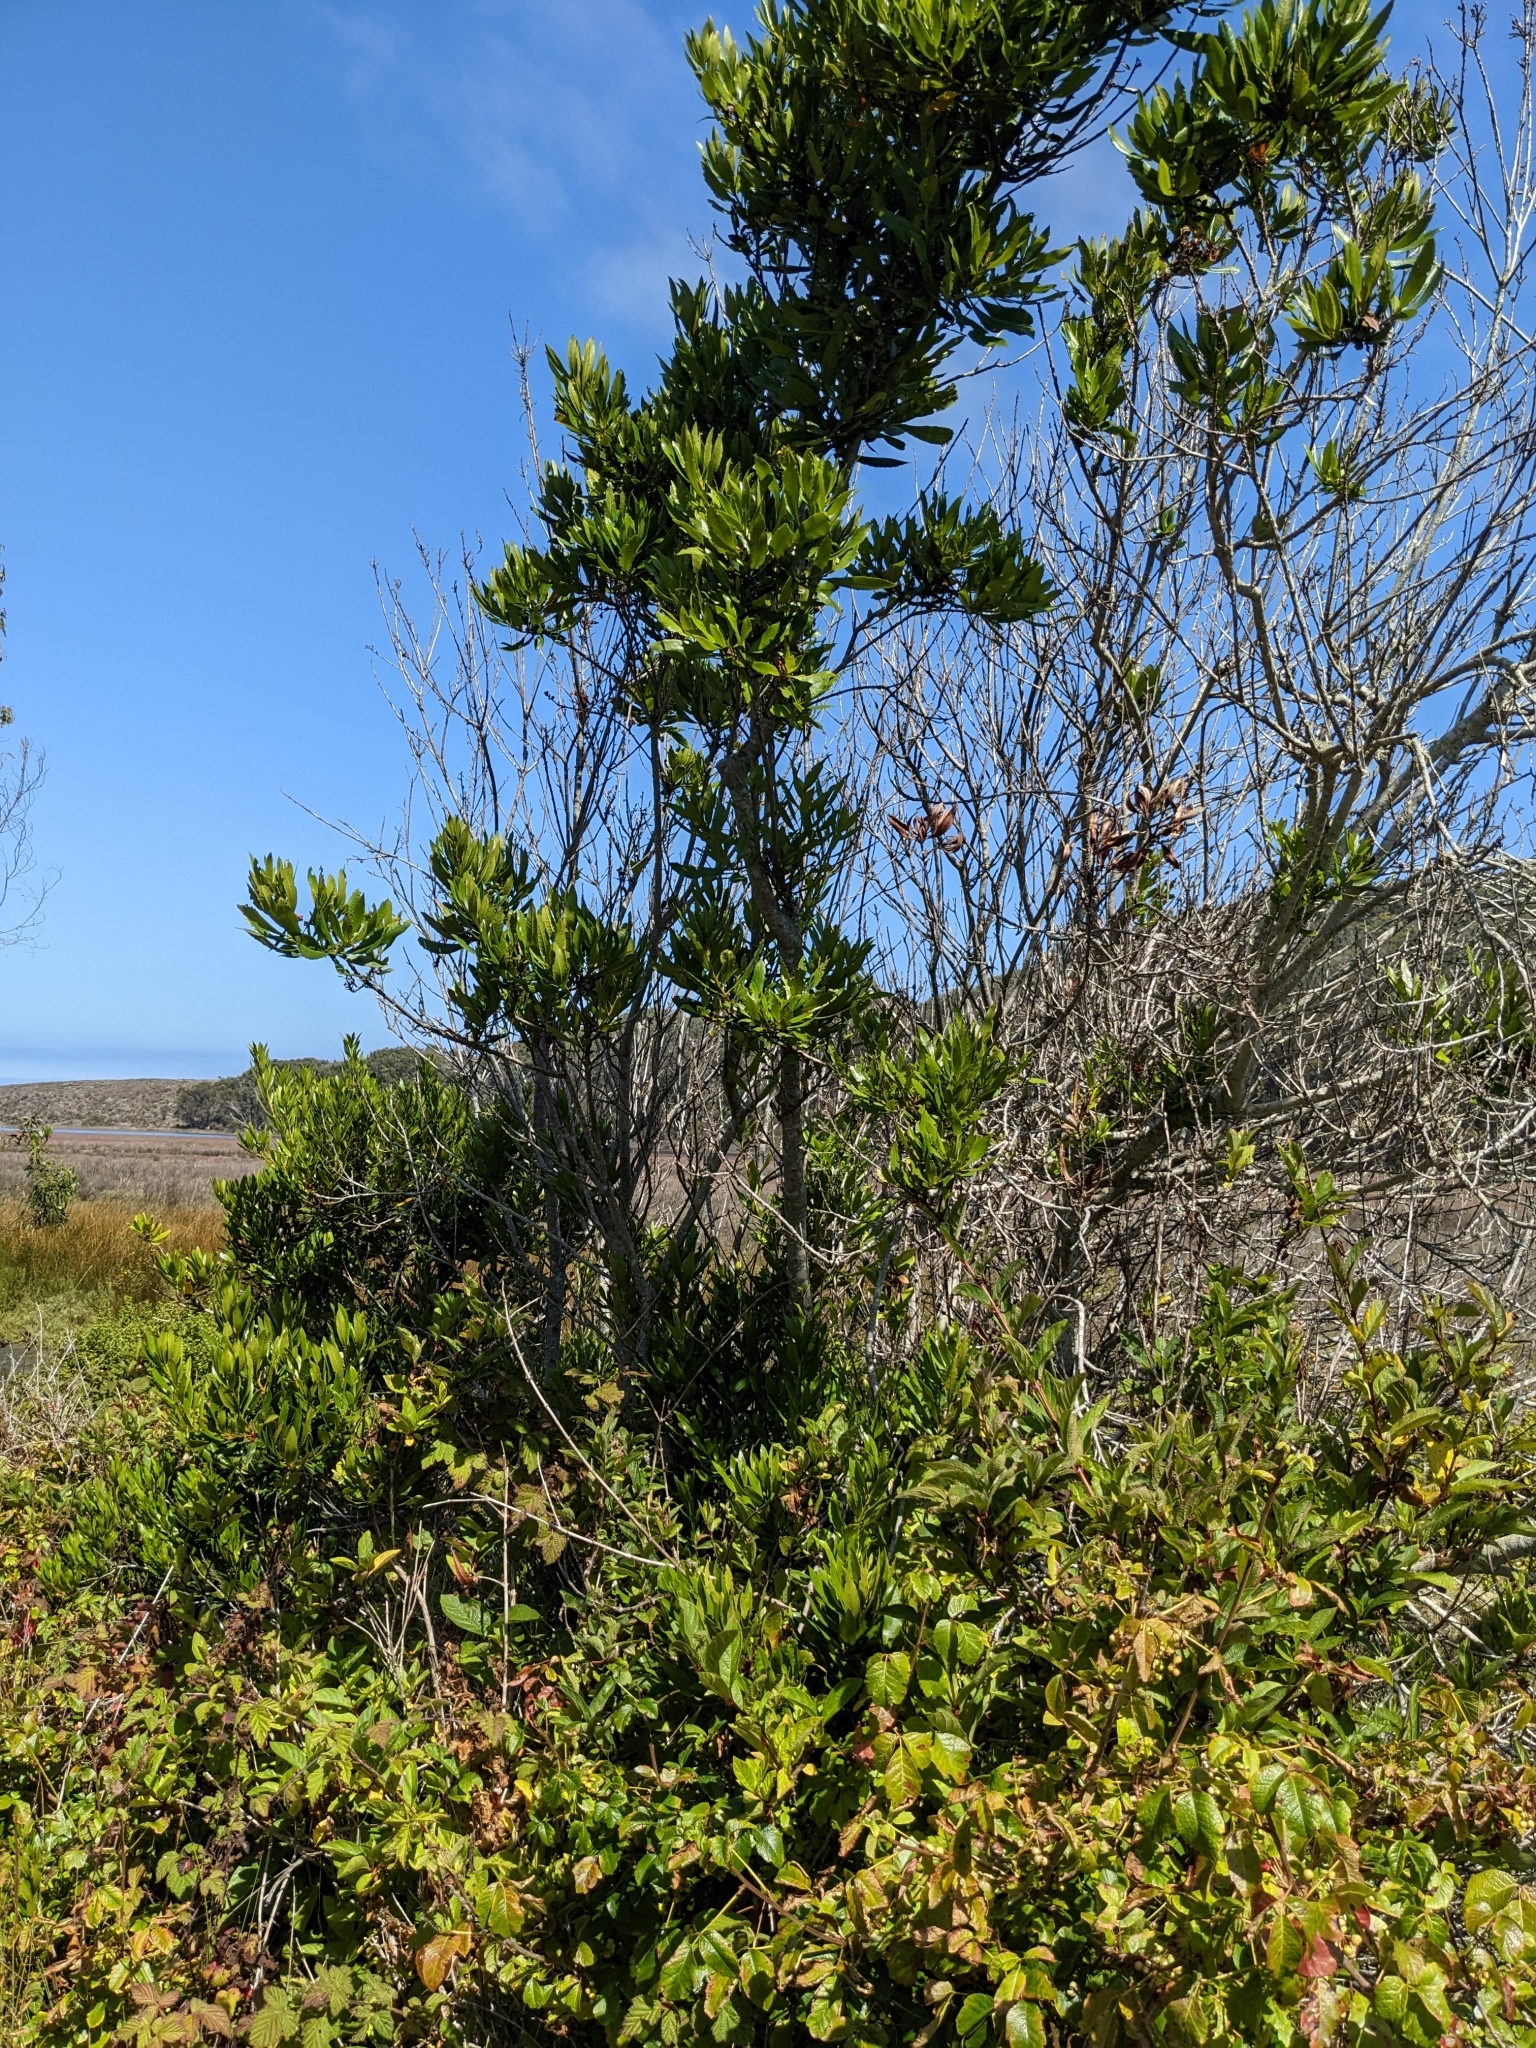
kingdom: Plantae
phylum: Tracheophyta
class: Magnoliopsida
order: Fagales
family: Myricaceae
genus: Morella
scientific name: Morella californica
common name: California wax-myrtle
